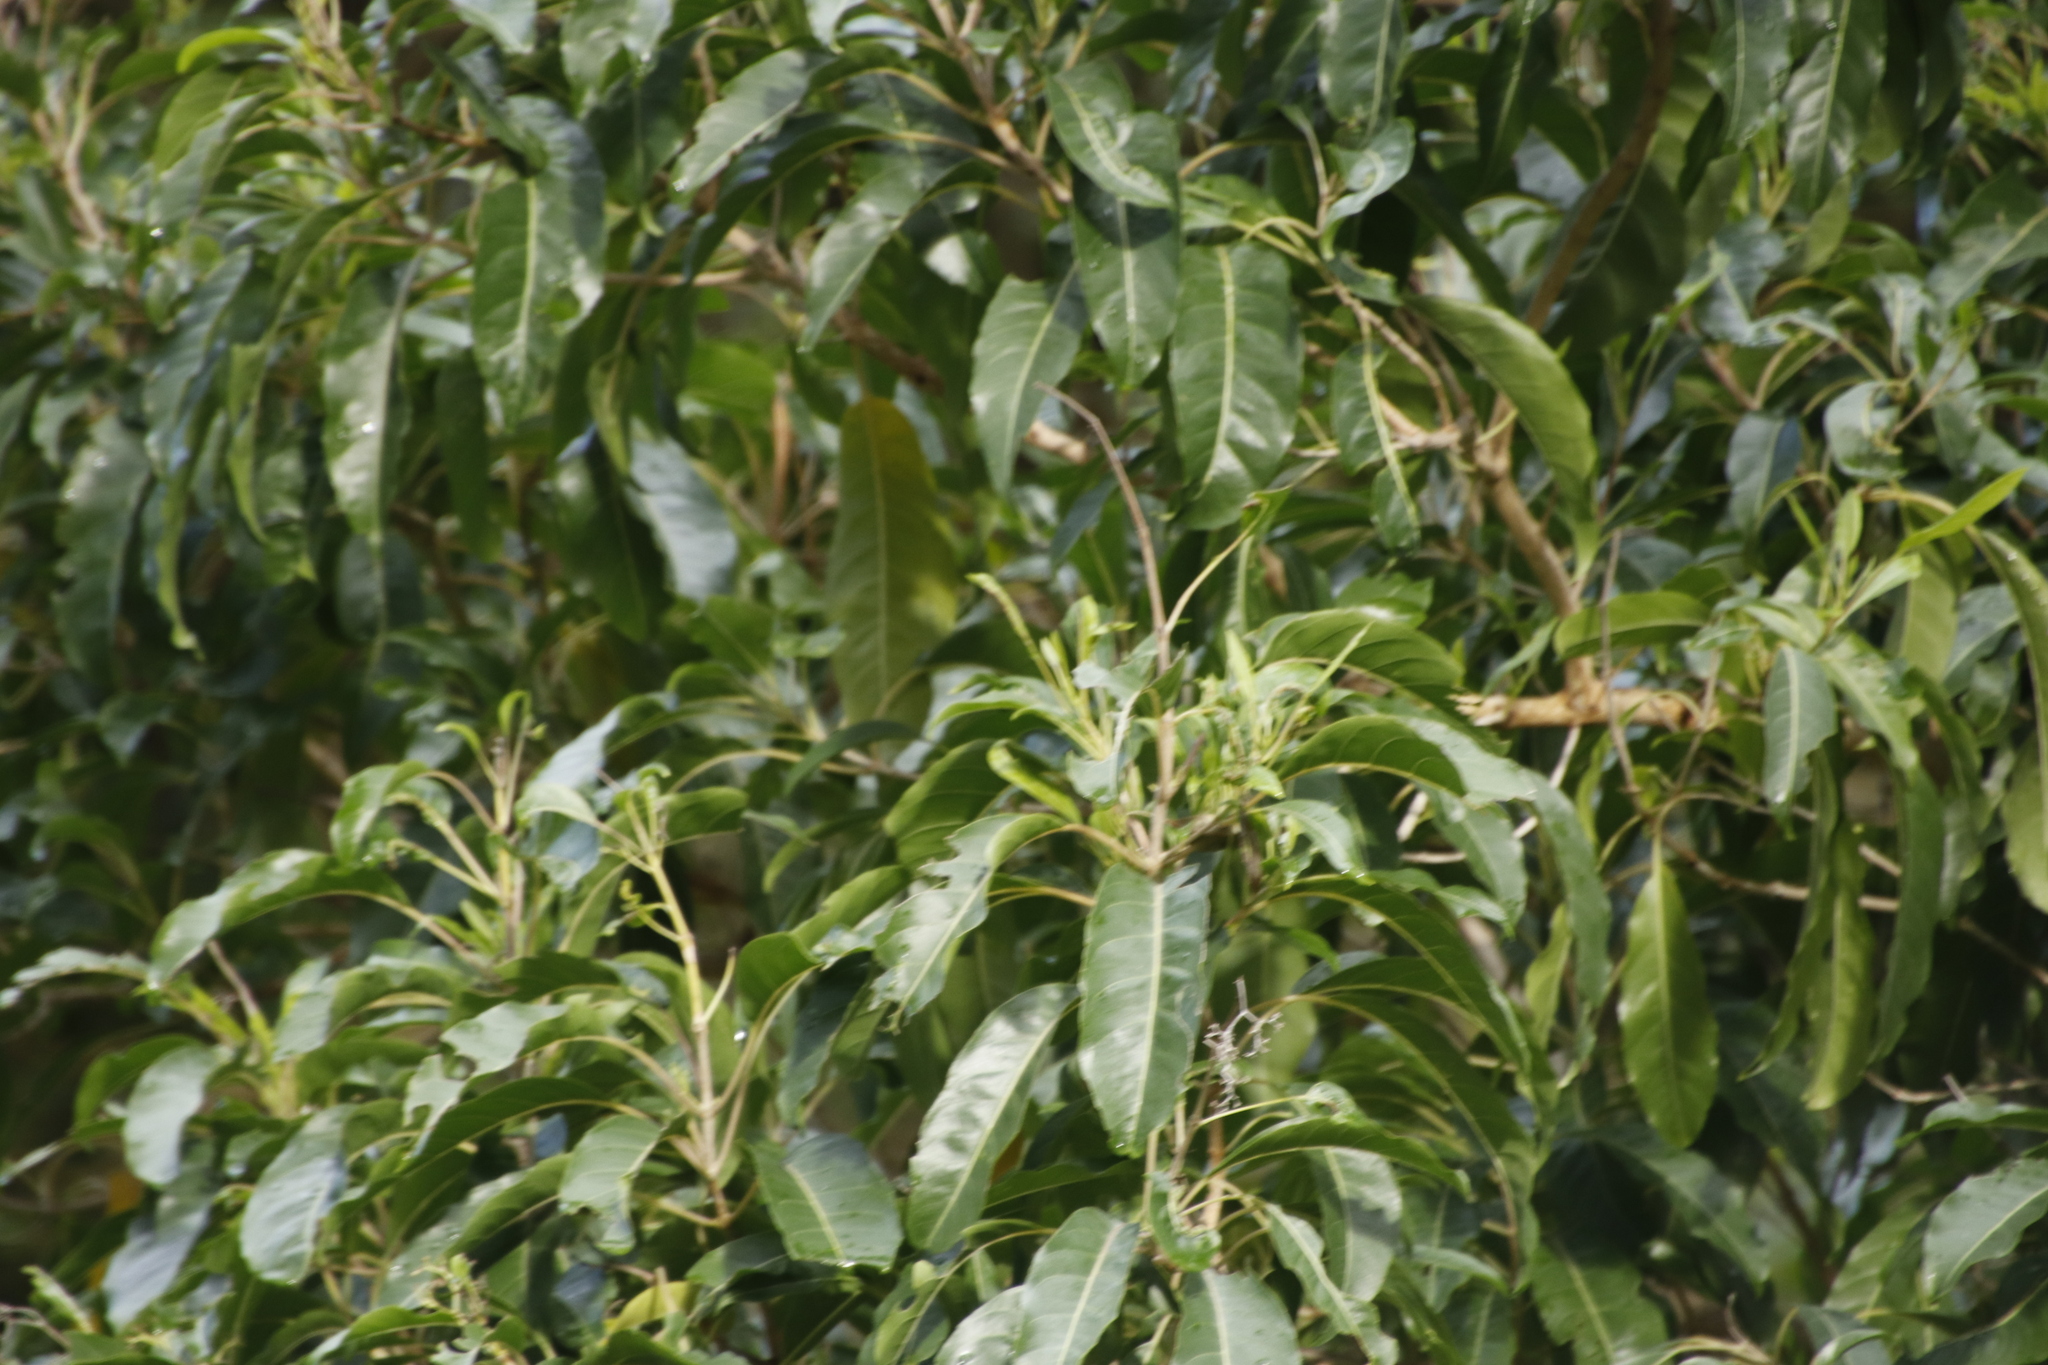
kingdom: Plantae
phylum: Tracheophyta
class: Magnoliopsida
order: Lamiales
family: Stilbaceae
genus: Nuxia
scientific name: Nuxia floribunda
